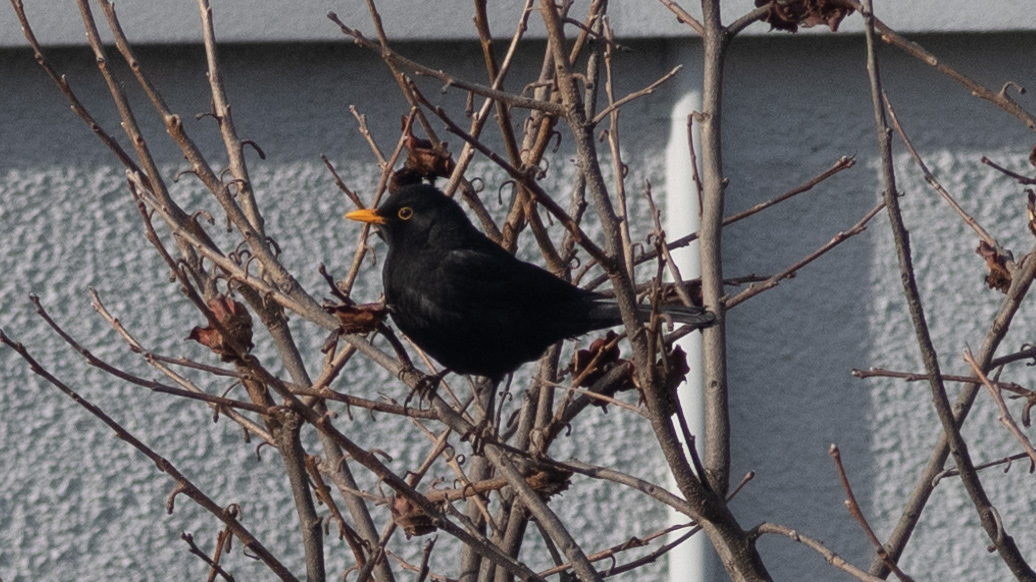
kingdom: Animalia
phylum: Chordata
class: Aves
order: Passeriformes
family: Turdidae
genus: Turdus
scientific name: Turdus merula
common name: Common blackbird
